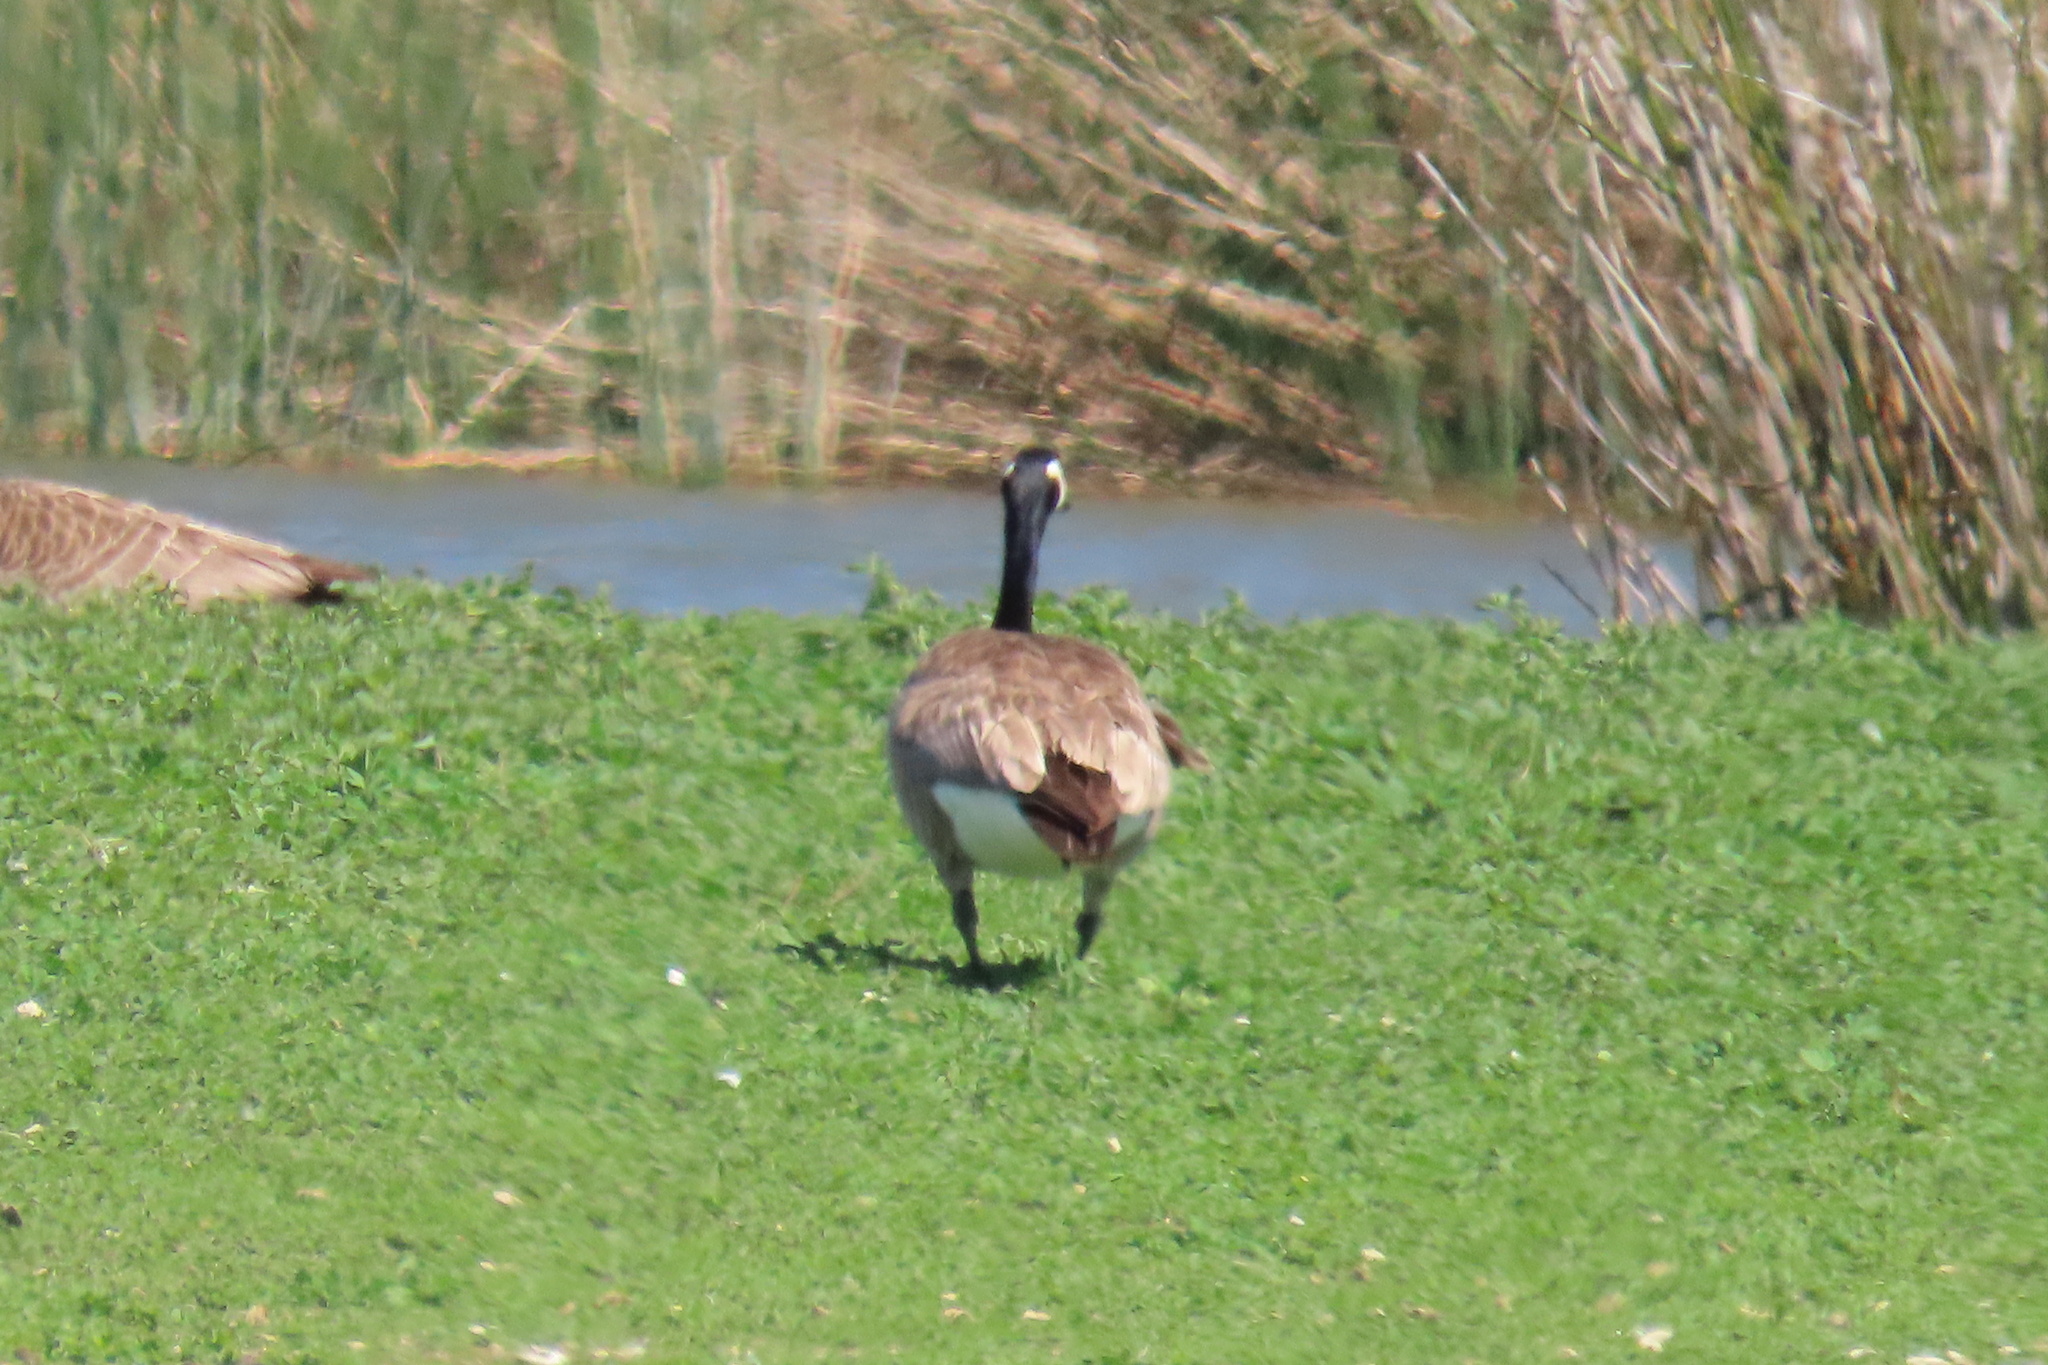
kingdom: Animalia
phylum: Chordata
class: Aves
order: Anseriformes
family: Anatidae
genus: Branta
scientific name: Branta canadensis
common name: Canada goose
